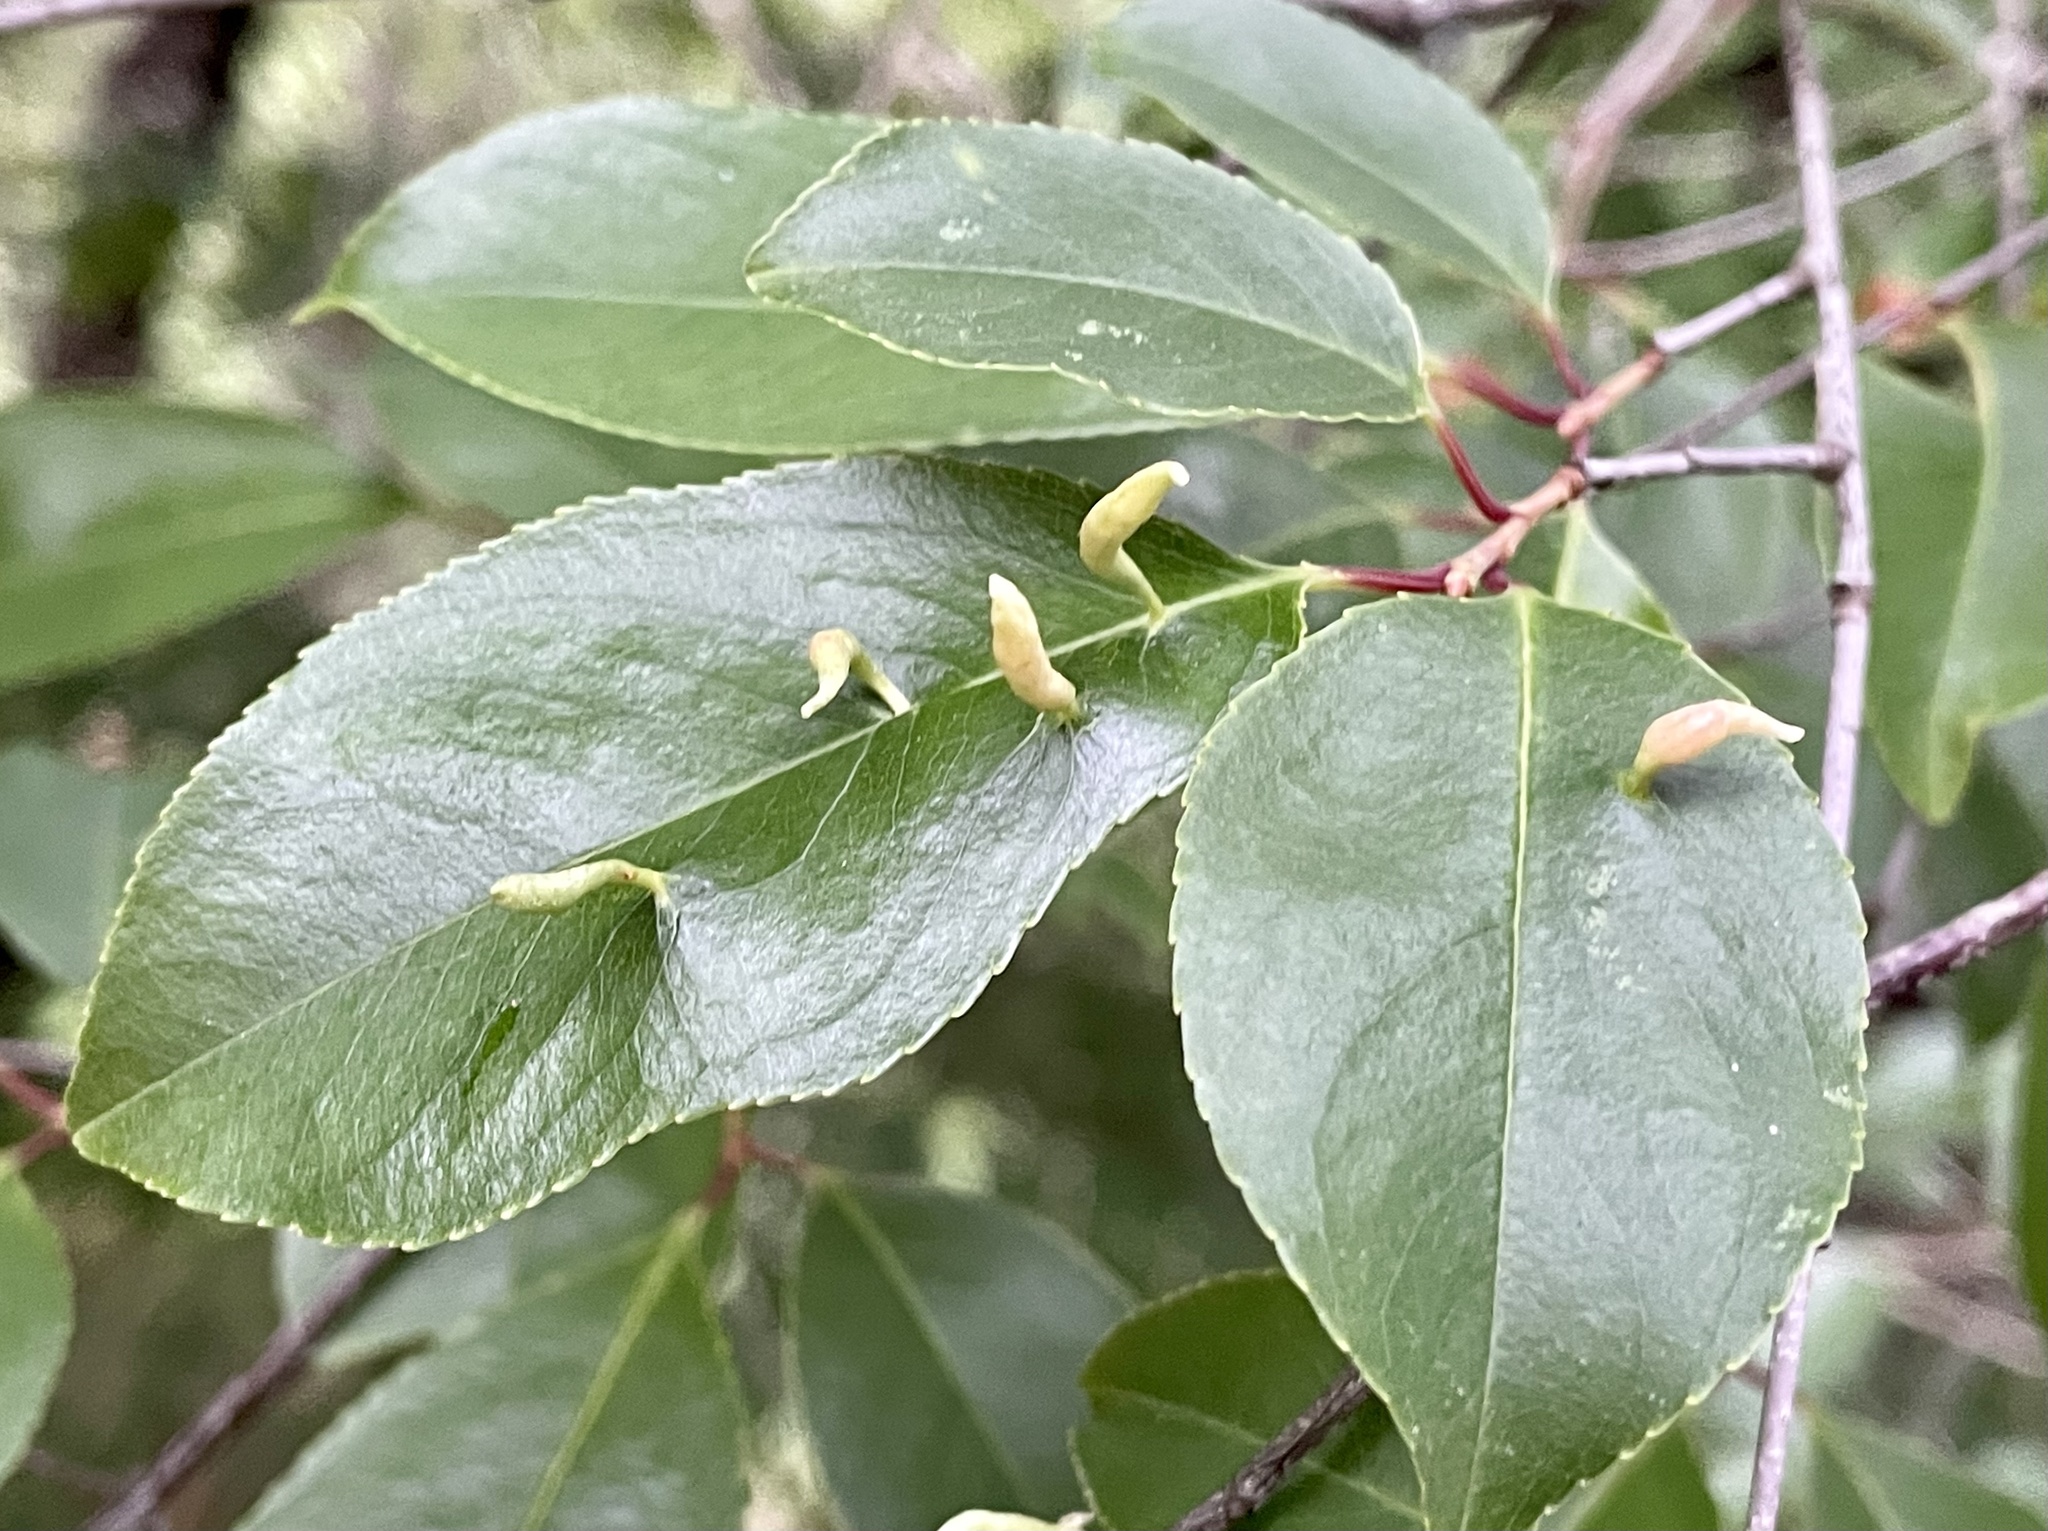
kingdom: Animalia
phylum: Arthropoda
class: Arachnida
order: Trombidiformes
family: Eriophyidae
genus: Eriophyes
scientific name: Eriophyes
